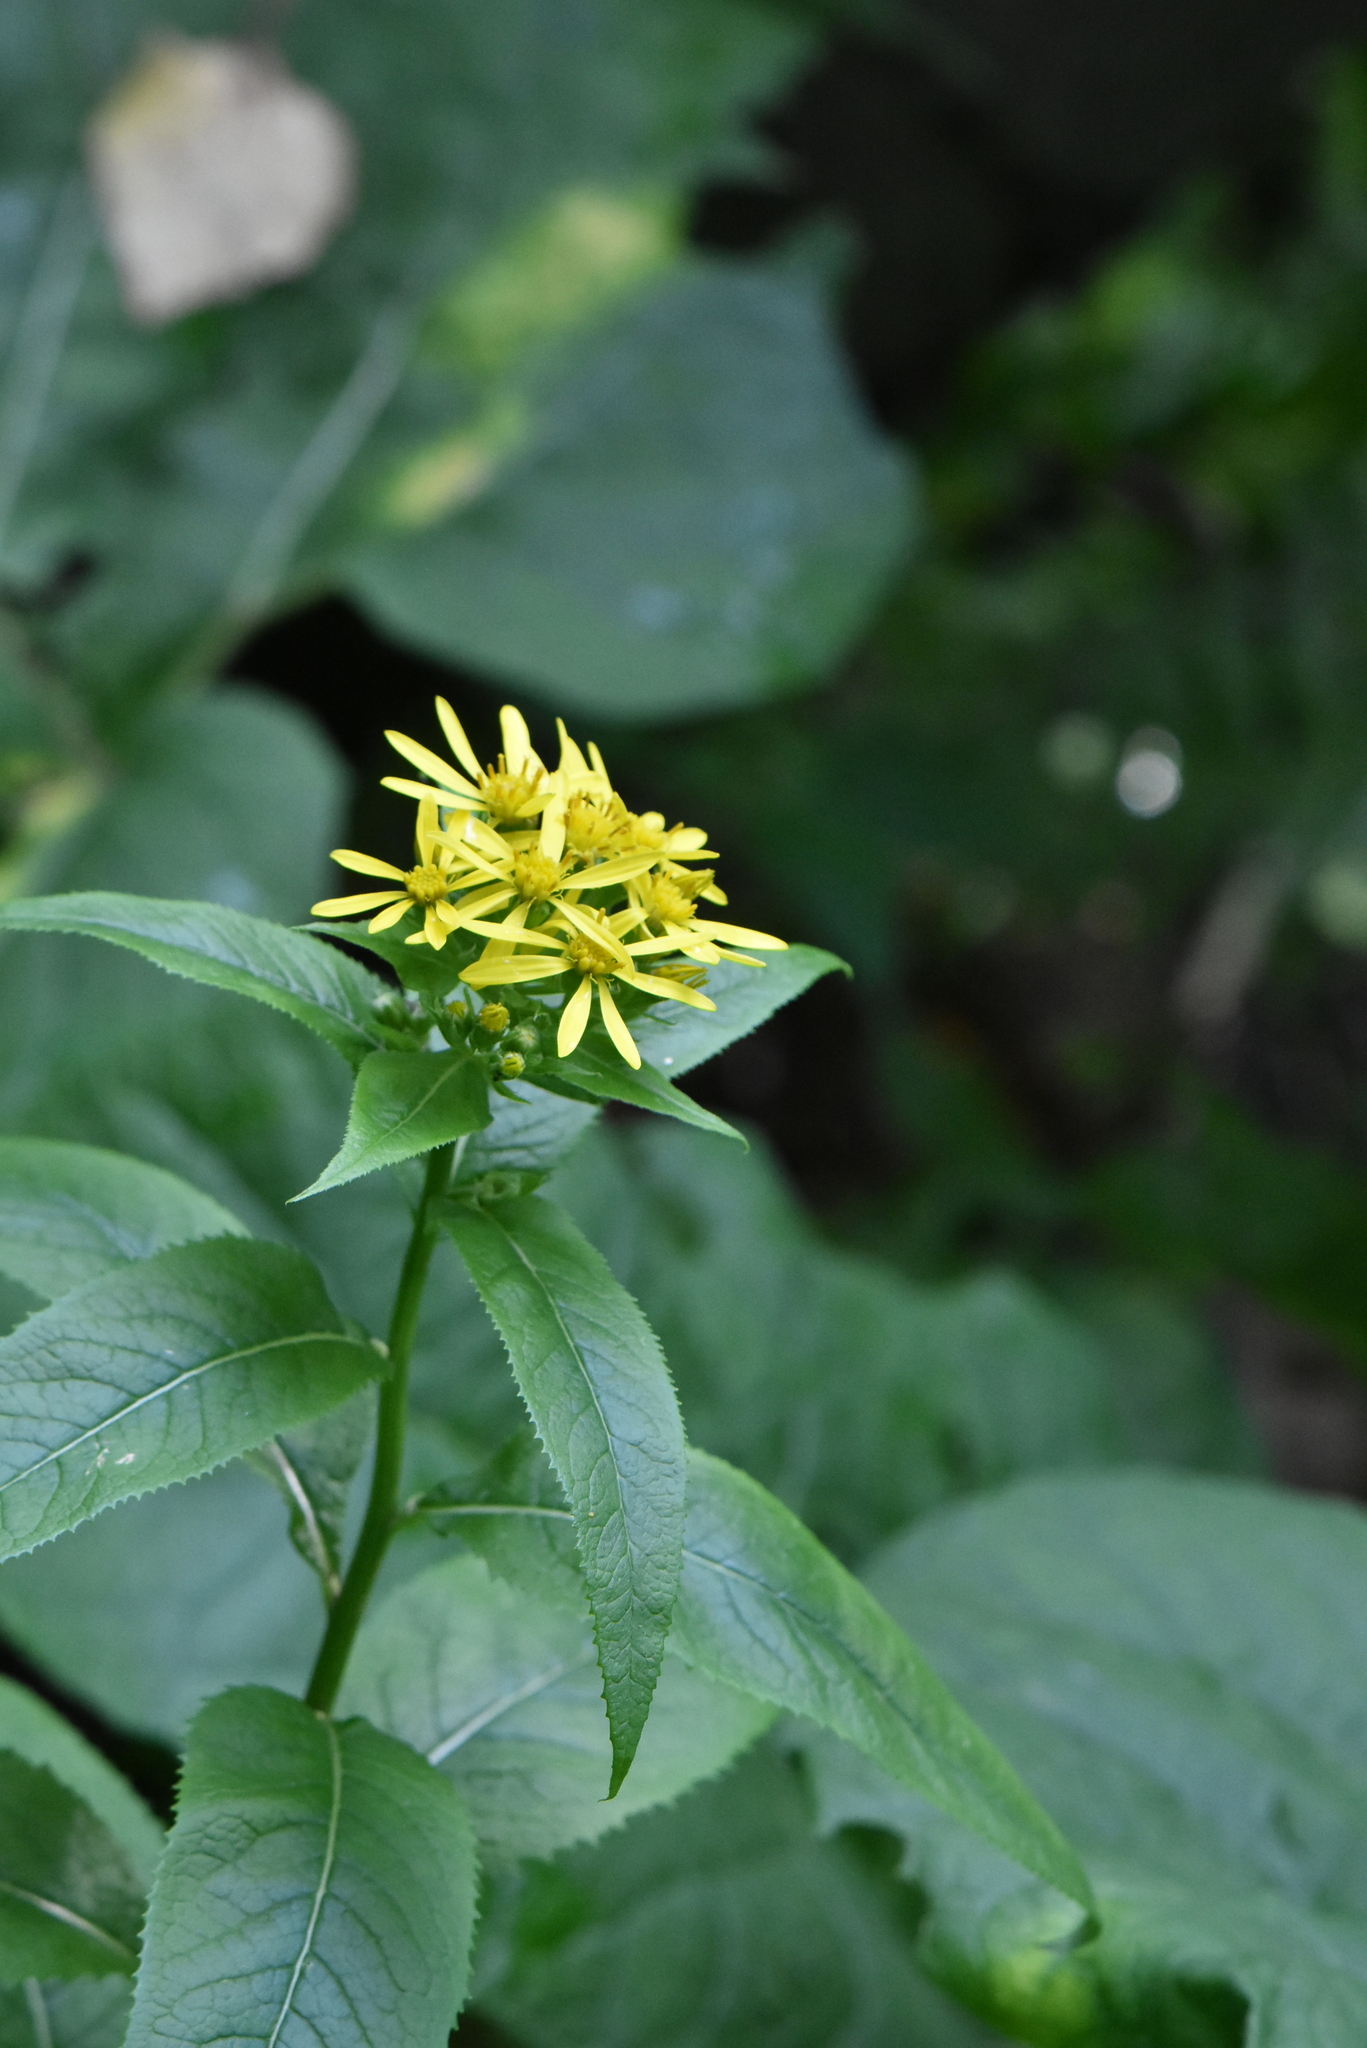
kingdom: Plantae
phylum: Tracheophyta
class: Magnoliopsida
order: Asterales
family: Asteraceae
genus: Senecio
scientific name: Senecio nemorensis
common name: Alpine ragwort
